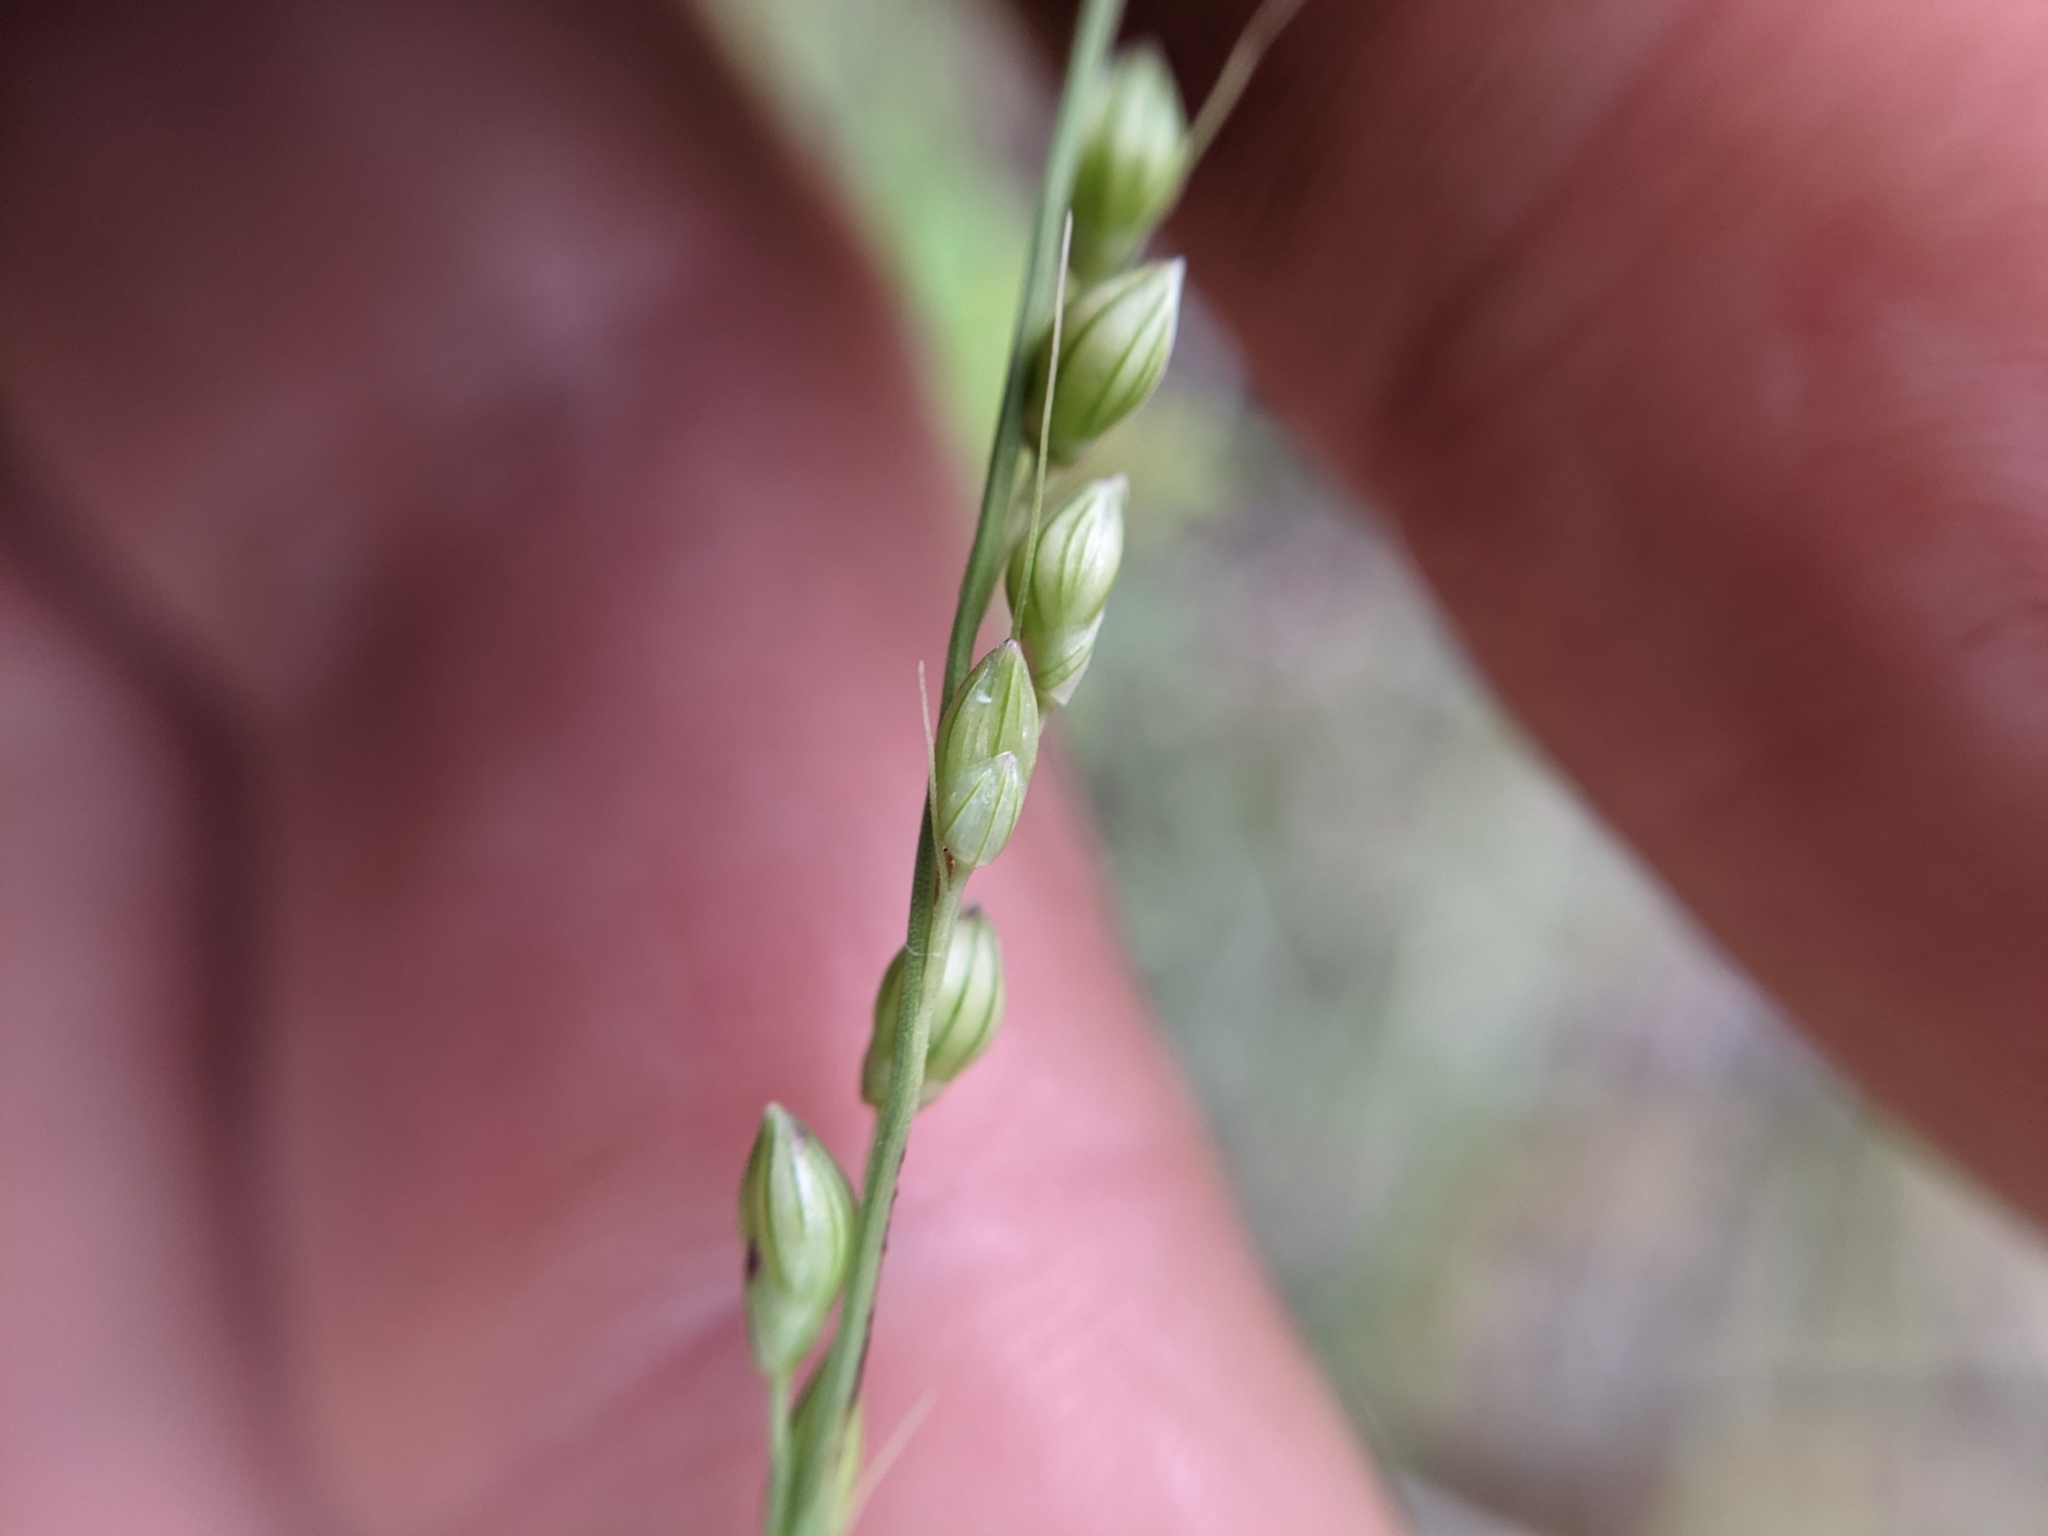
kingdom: Plantae
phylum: Tracheophyta
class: Liliopsida
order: Poales
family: Poaceae
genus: Setaria
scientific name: Setaria reverchonii
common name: Reverchon's bristle grass
